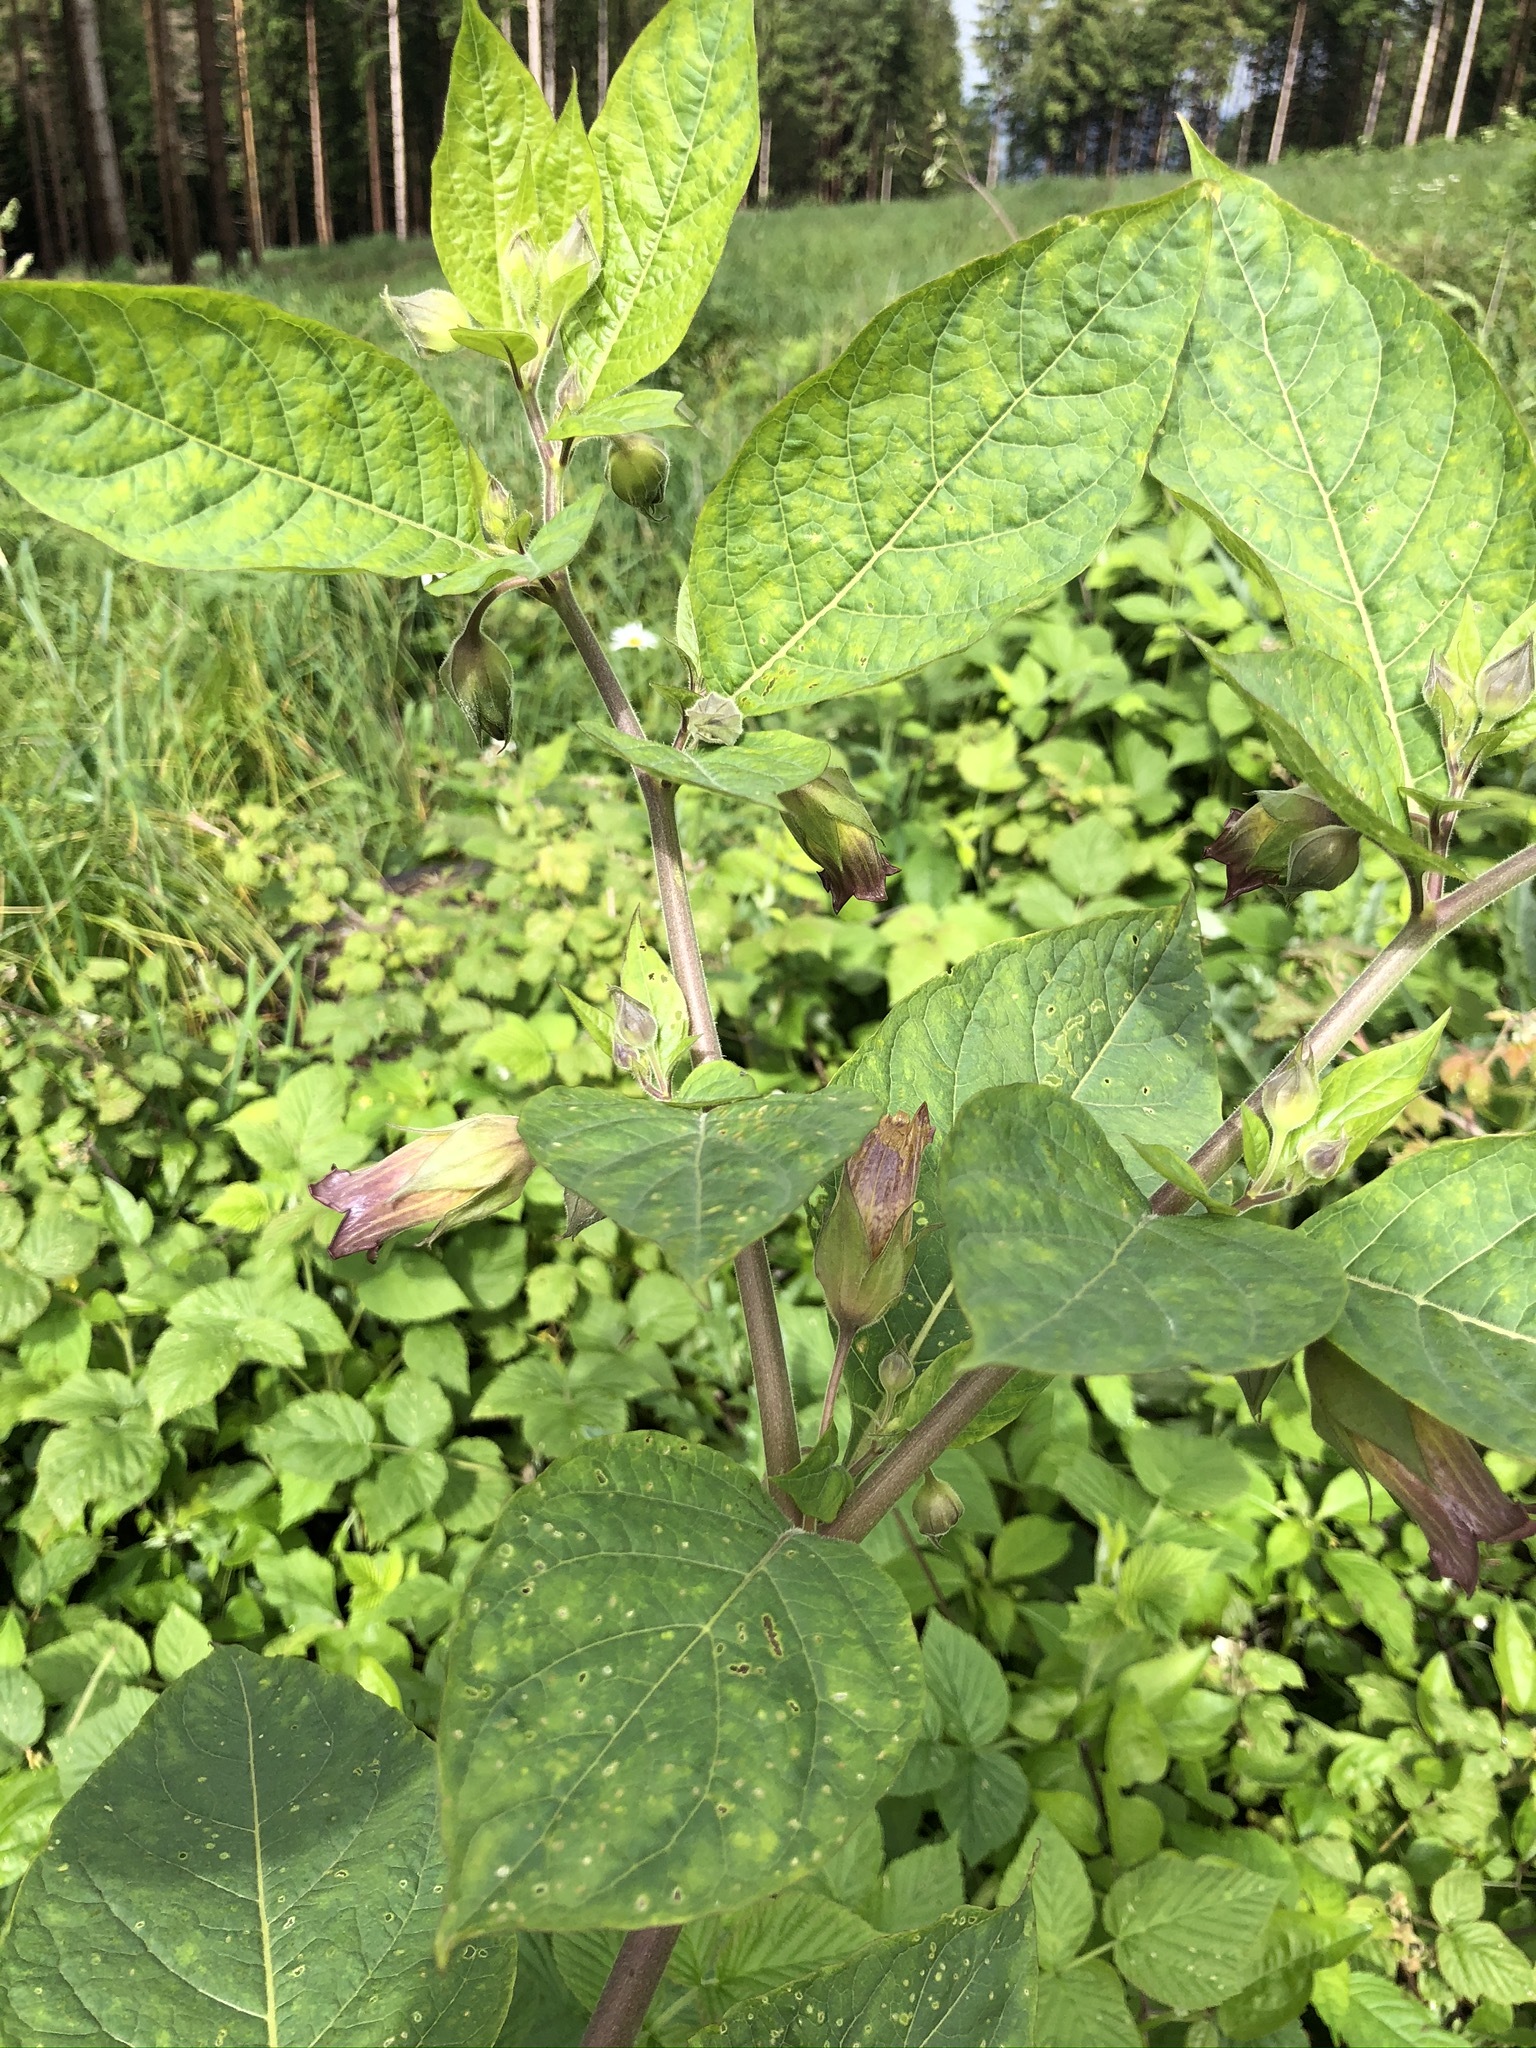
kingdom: Plantae
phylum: Tracheophyta
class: Magnoliopsida
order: Solanales
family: Solanaceae
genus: Atropa
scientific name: Atropa belladonna
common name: Deadly nightshade
